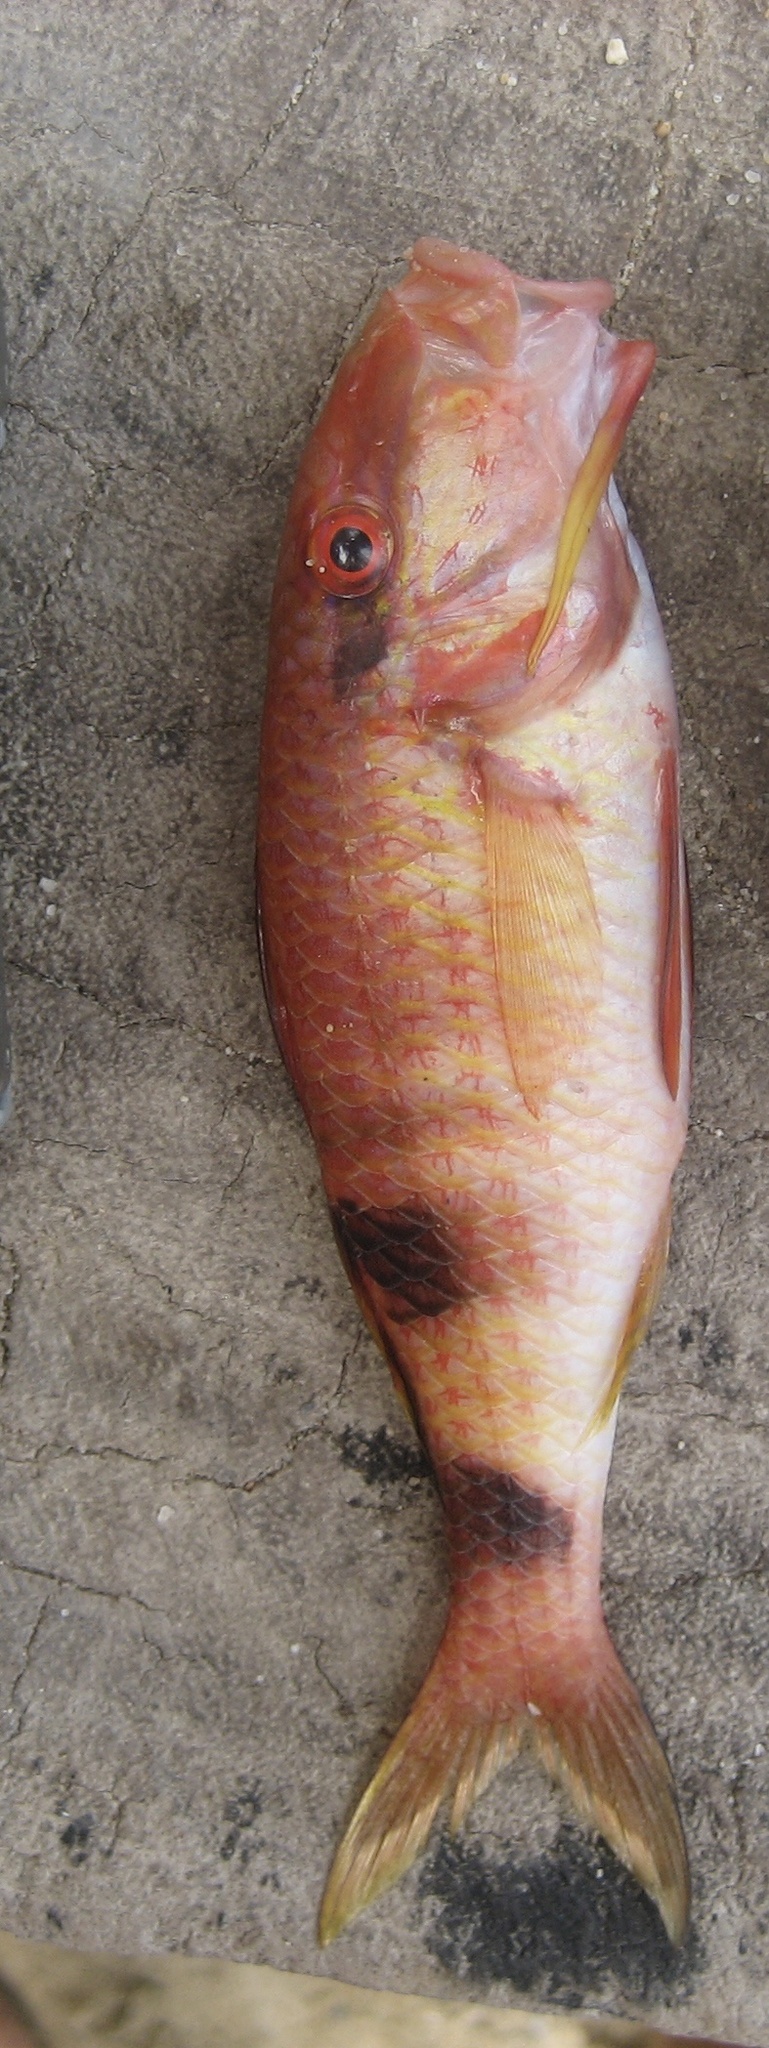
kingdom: Animalia
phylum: Chordata
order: Perciformes
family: Mullidae
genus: Parupeneus
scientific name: Parupeneus multifasciatus
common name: Manybar goatfish
